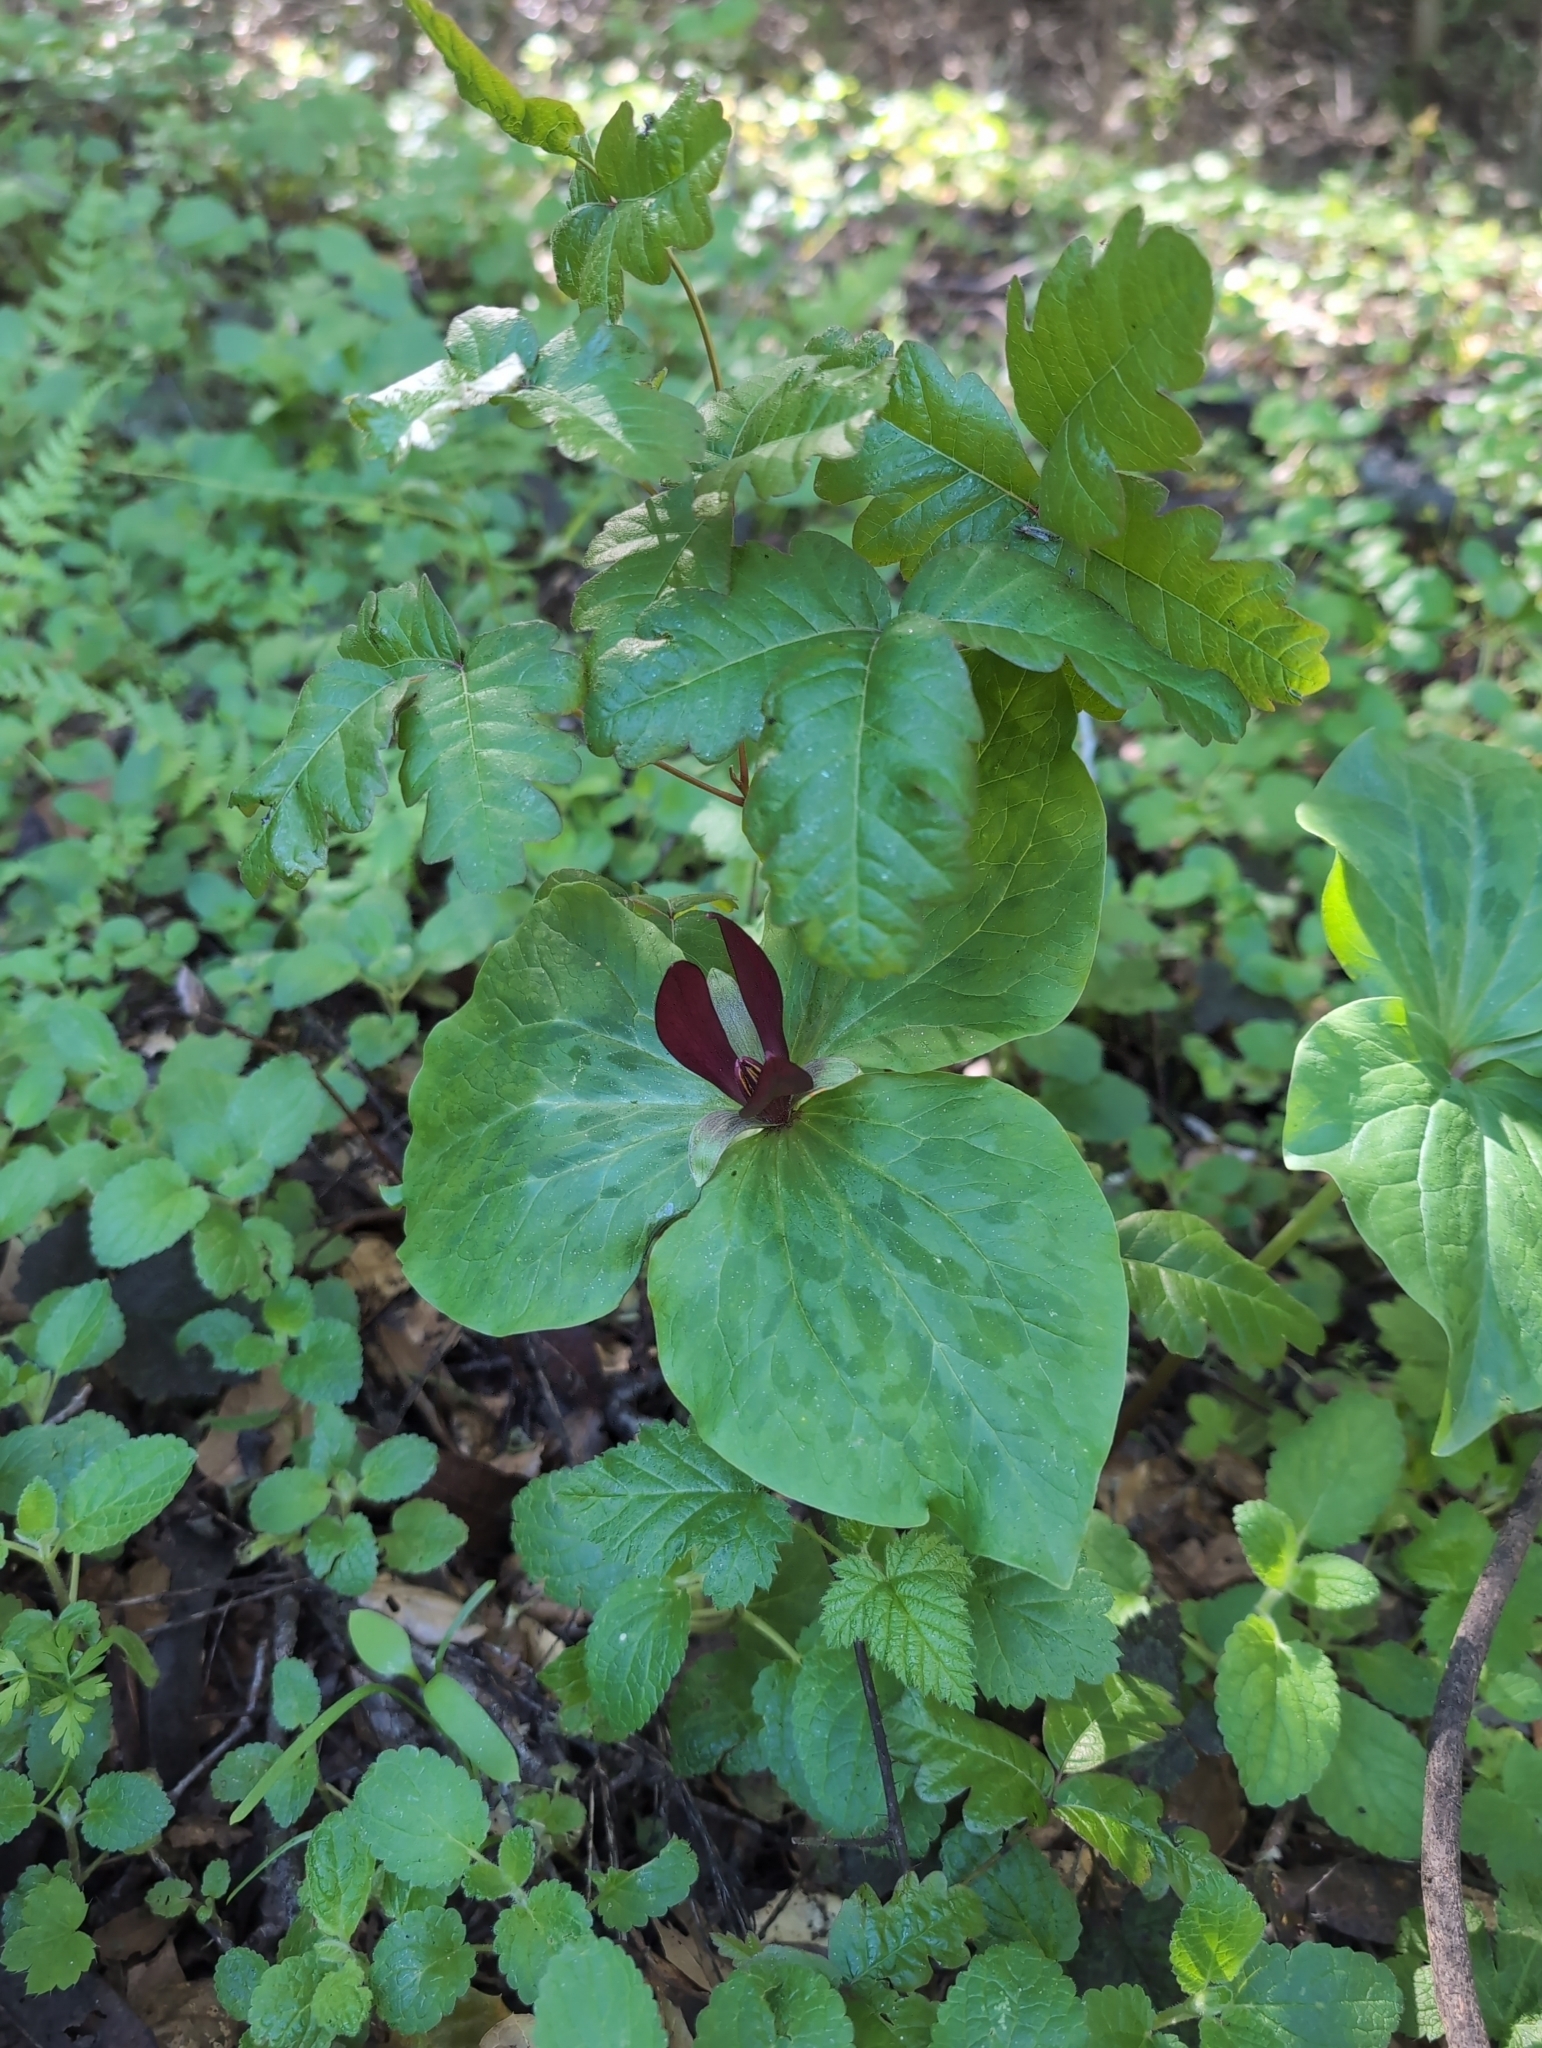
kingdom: Plantae
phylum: Tracheophyta
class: Liliopsida
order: Liliales
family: Melanthiaceae
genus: Trillium
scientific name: Trillium chloropetalum
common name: Giant trillium
